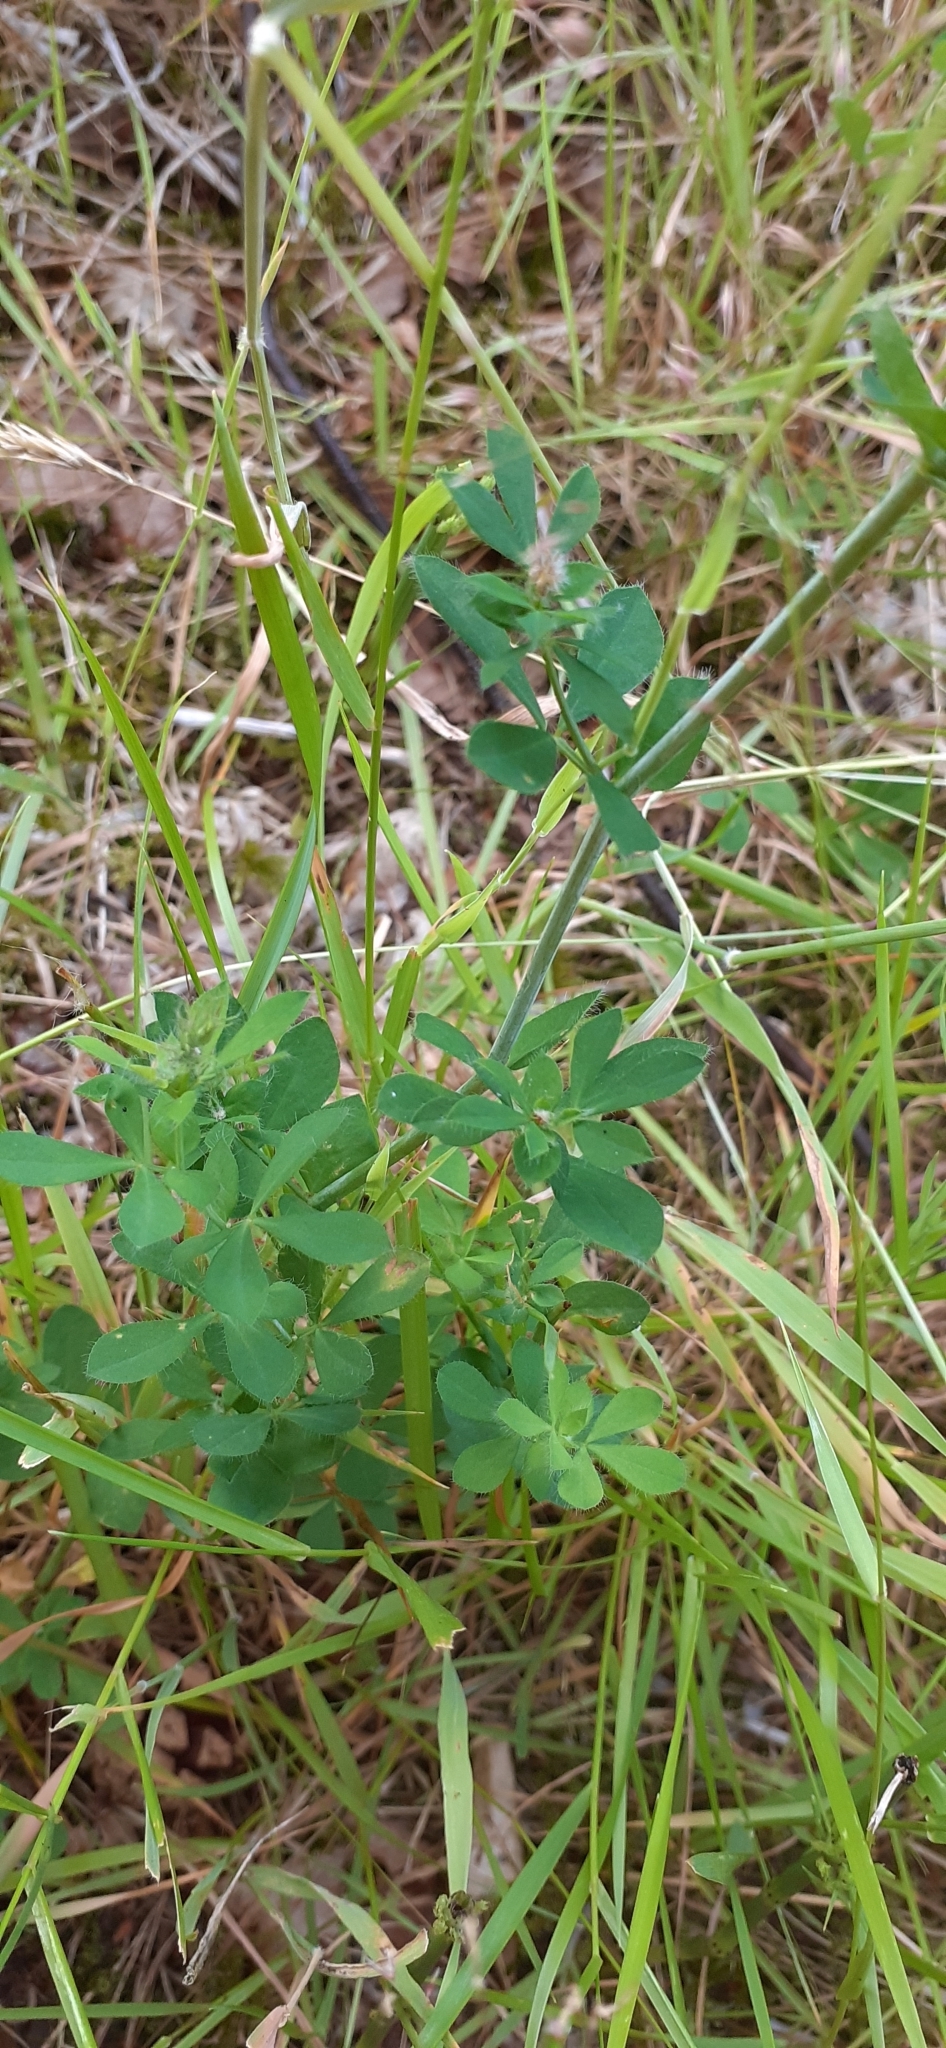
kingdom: Plantae
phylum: Tracheophyta
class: Magnoliopsida
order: Fabales
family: Fabaceae
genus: Lotus
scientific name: Lotus pedunculatus
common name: Greater birdsfoot-trefoil
